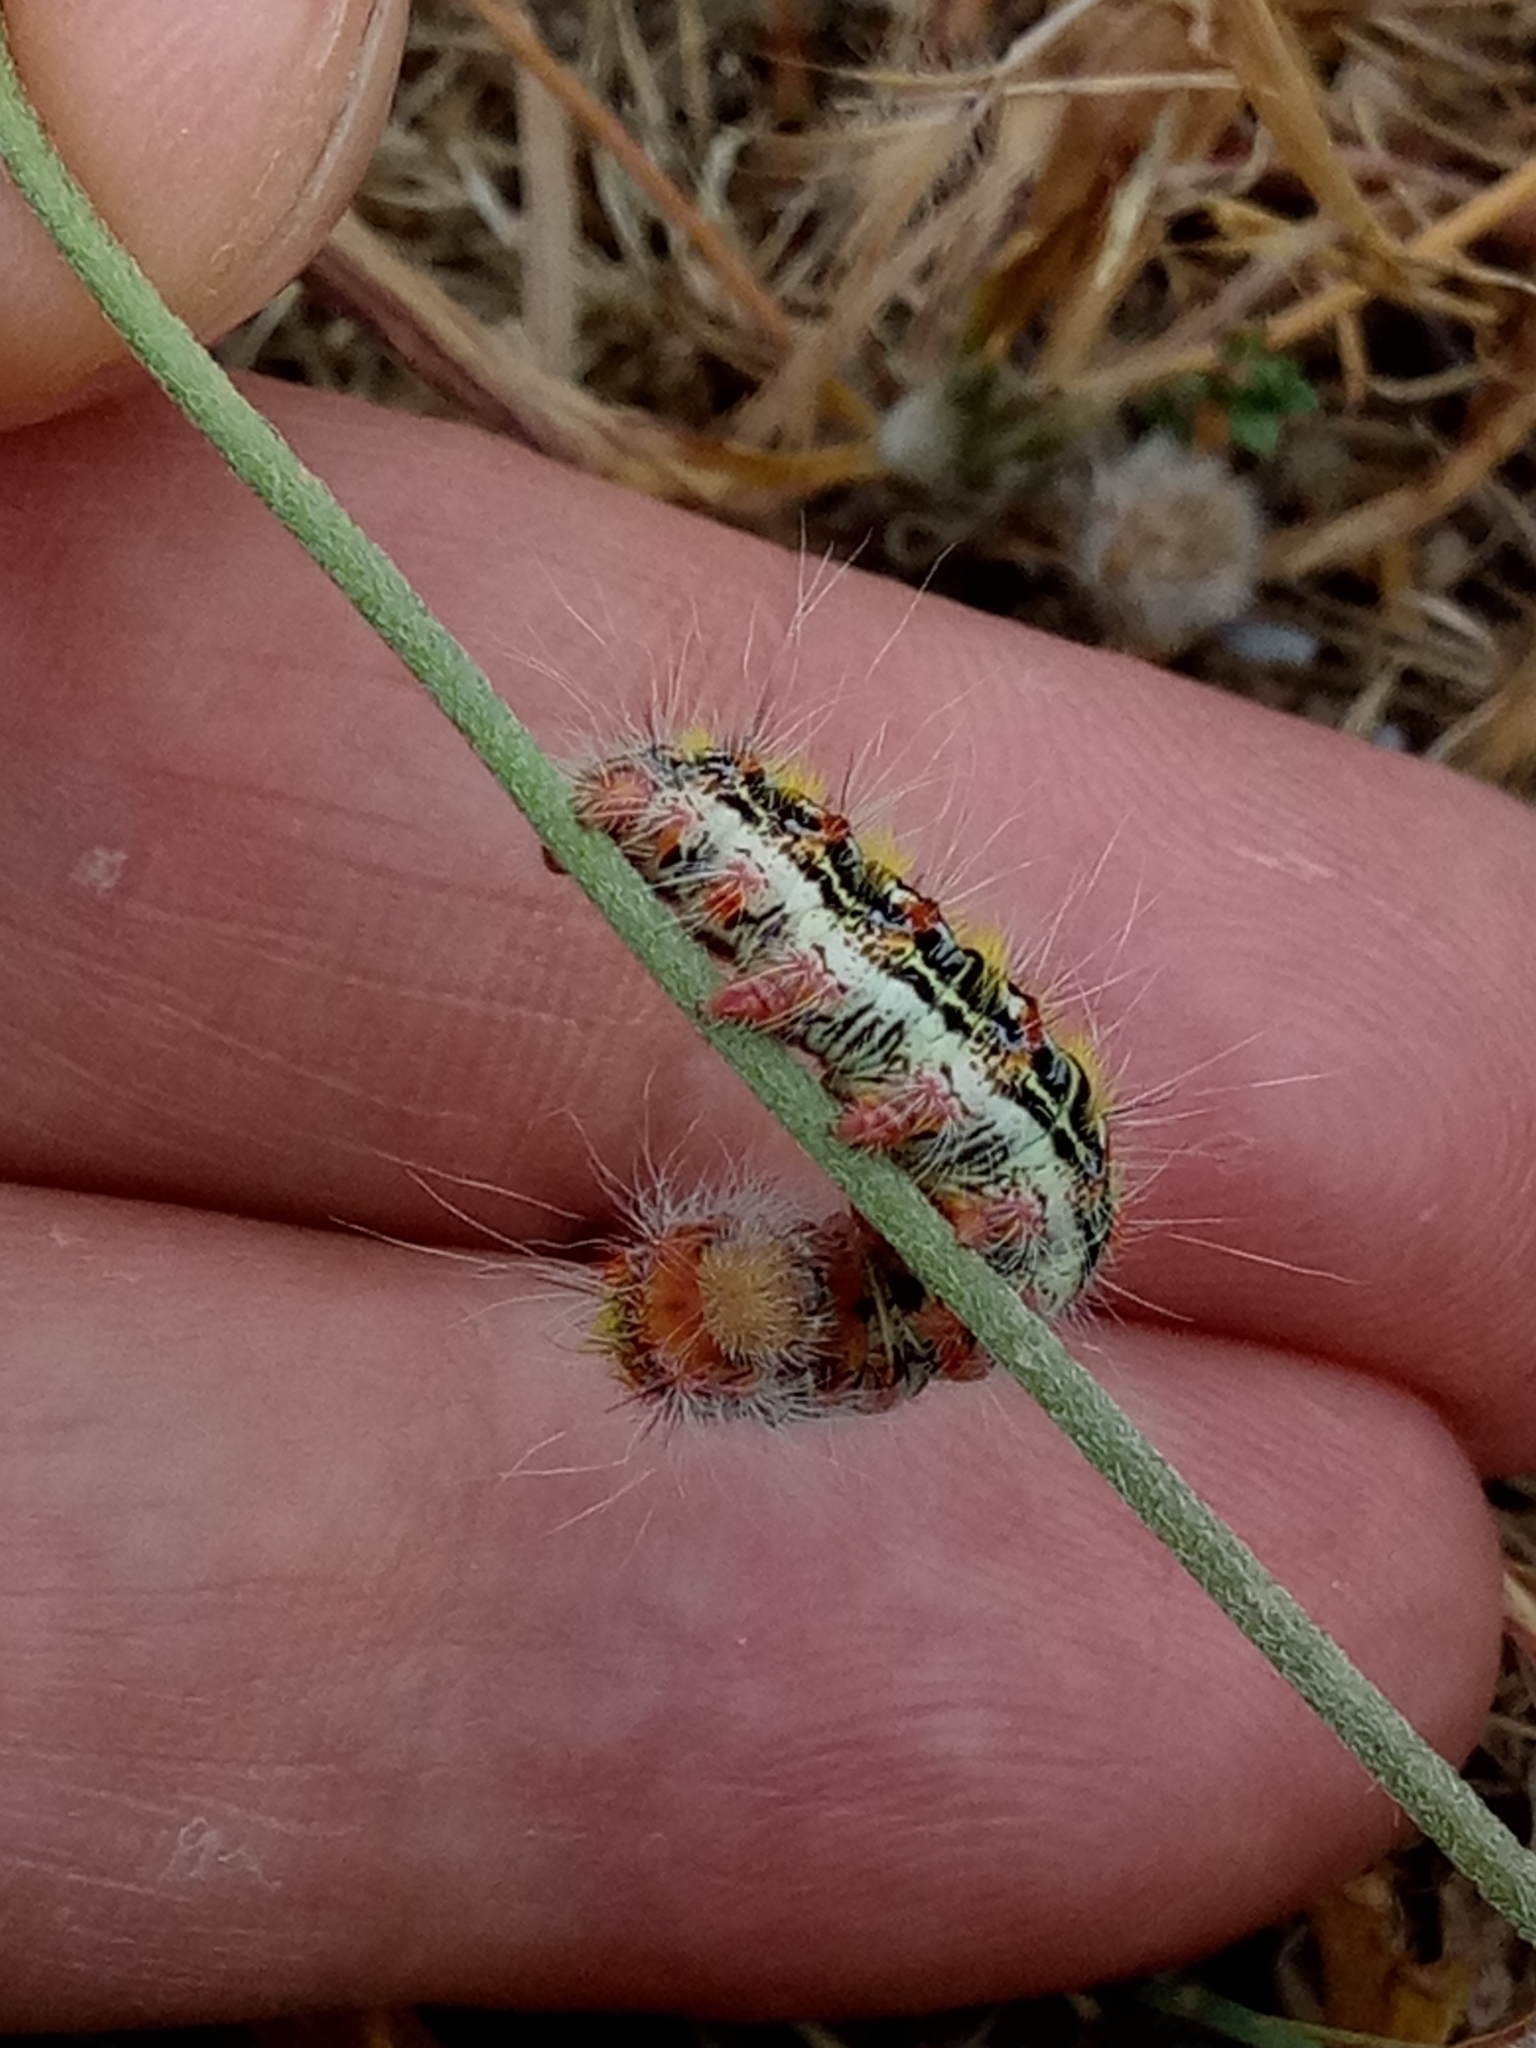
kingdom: Animalia
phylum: Arthropoda
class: Insecta
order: Lepidoptera
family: Lasiocampidae
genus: Psilogaster
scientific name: Psilogaster algeriensis
